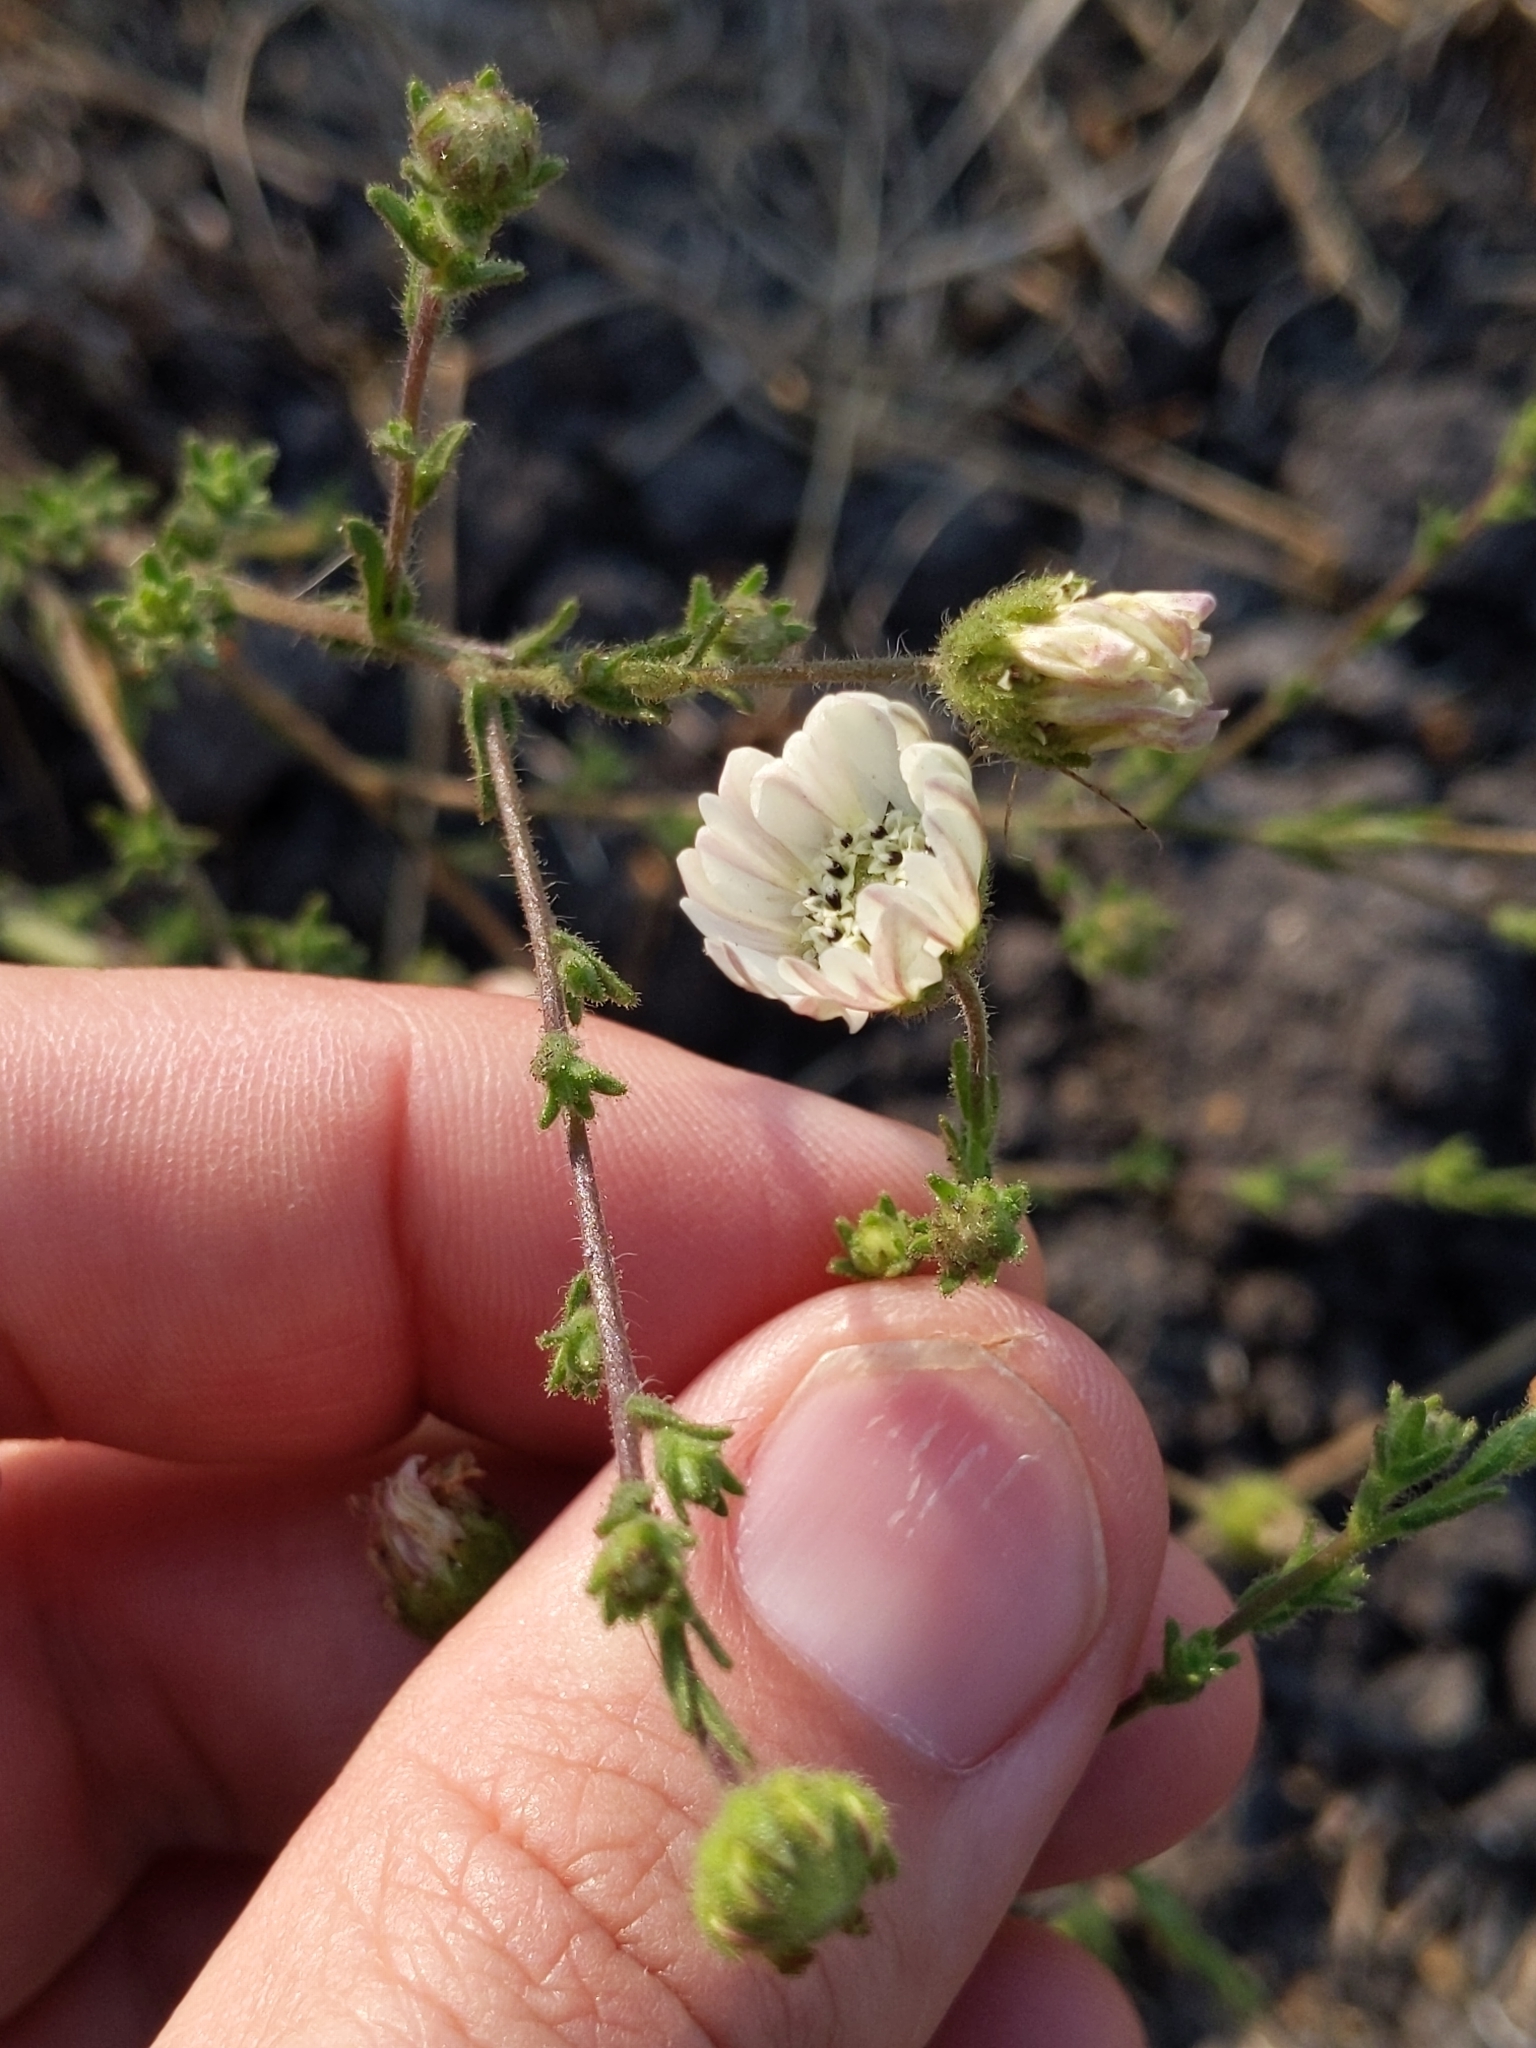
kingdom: Plantae
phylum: Tracheophyta
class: Magnoliopsida
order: Asterales
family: Asteraceae
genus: Hemizonia
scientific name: Hemizonia congesta
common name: Hayfield tarweed
